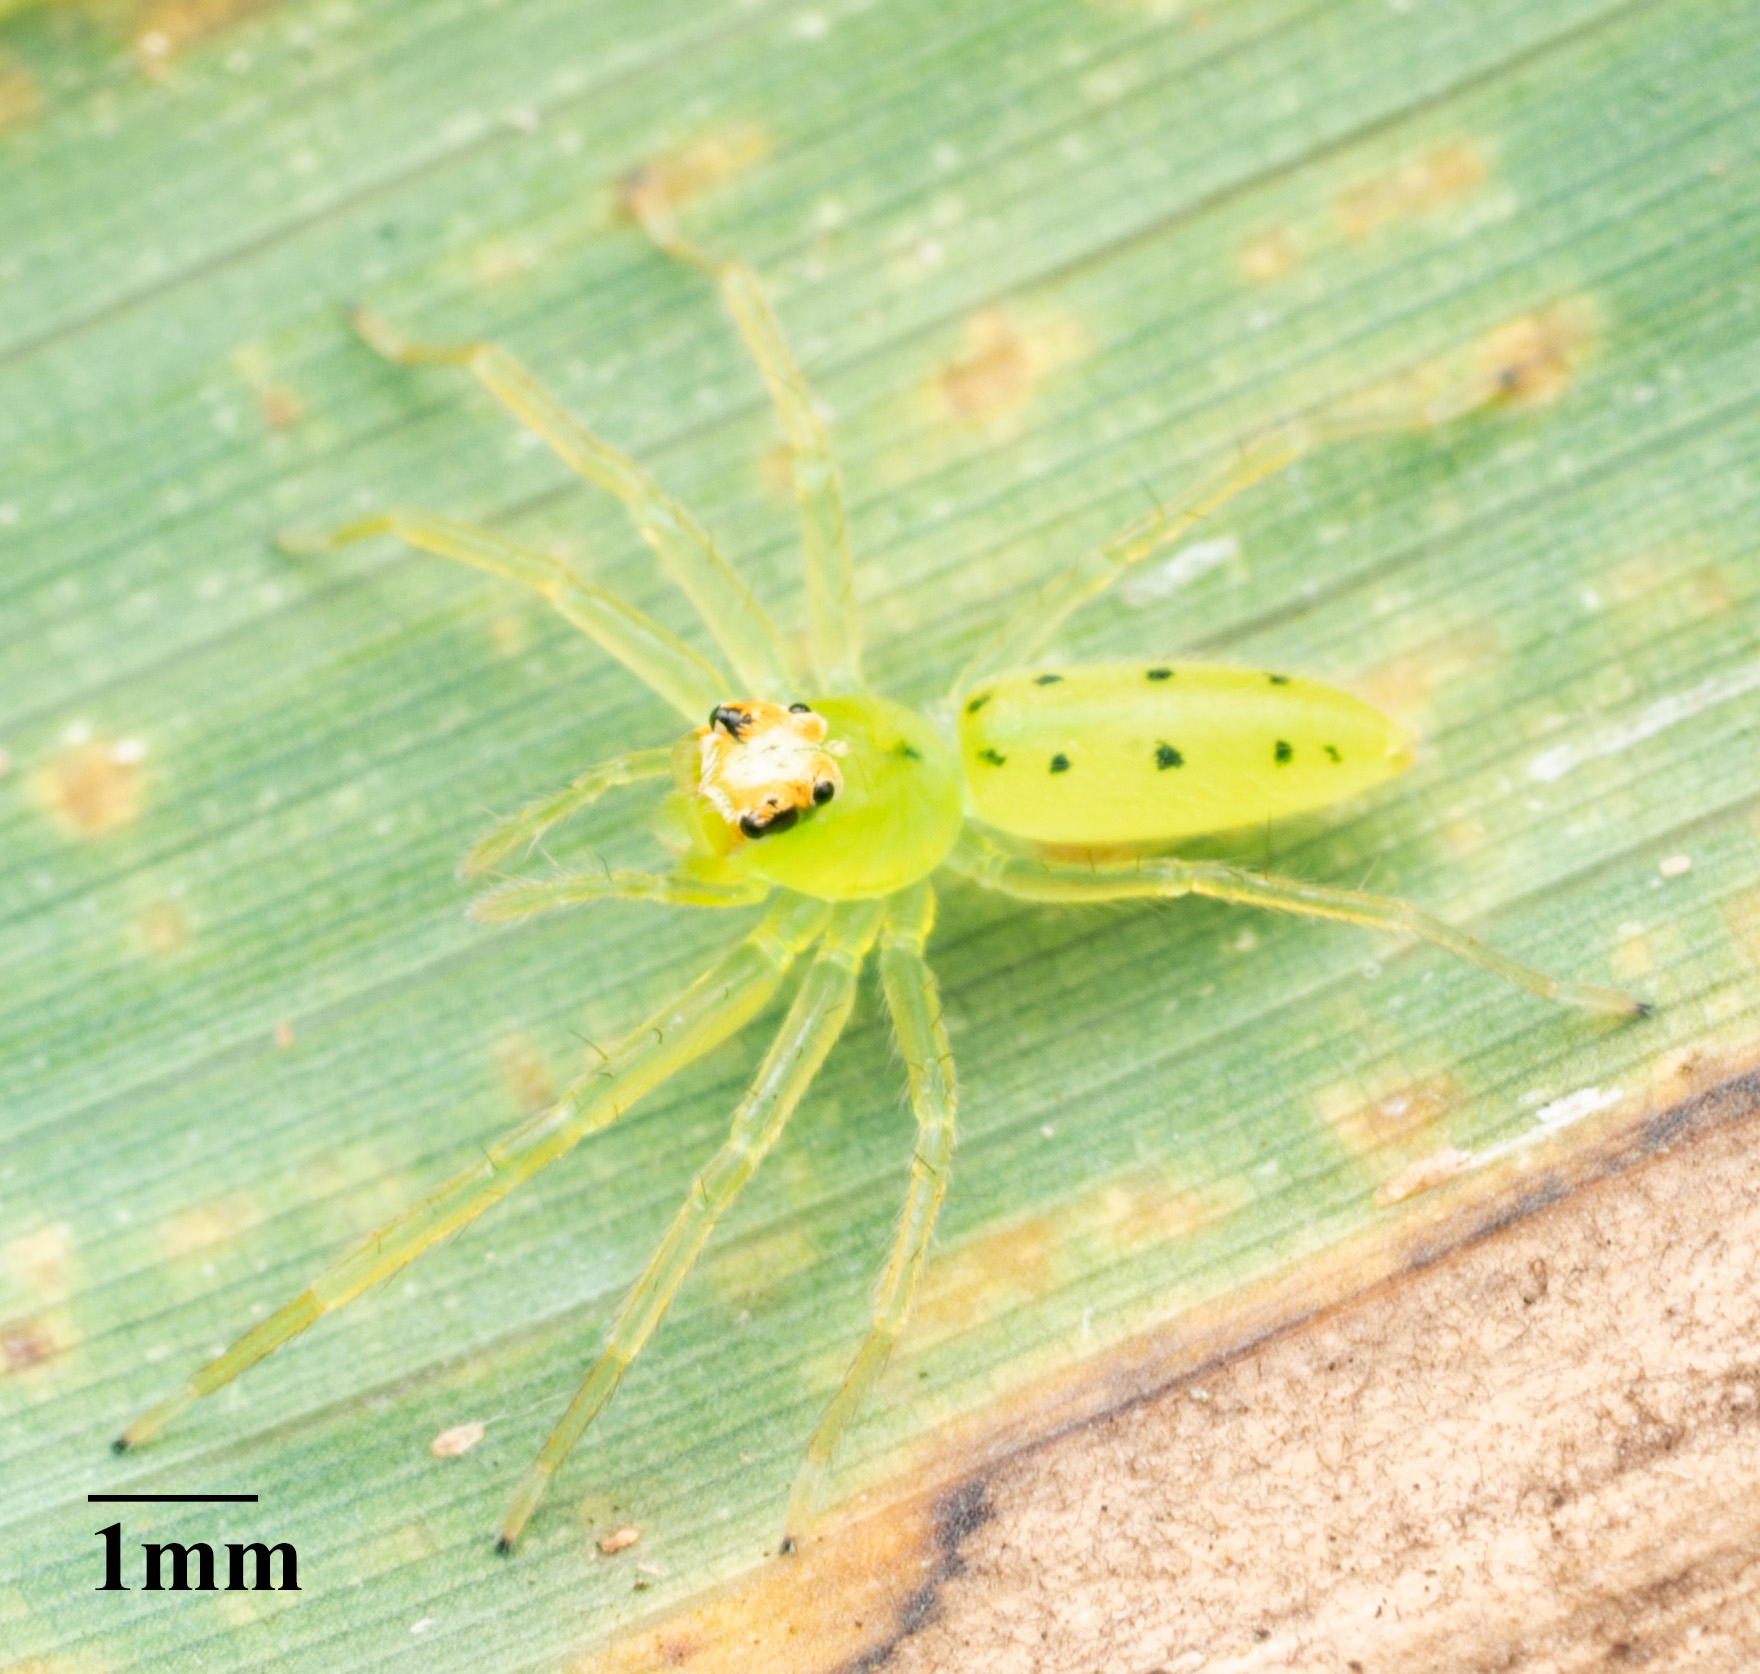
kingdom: Animalia
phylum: Arthropoda
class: Arachnida
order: Araneae
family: Salticidae
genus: Lyssomanes
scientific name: Lyssomanes viridis
